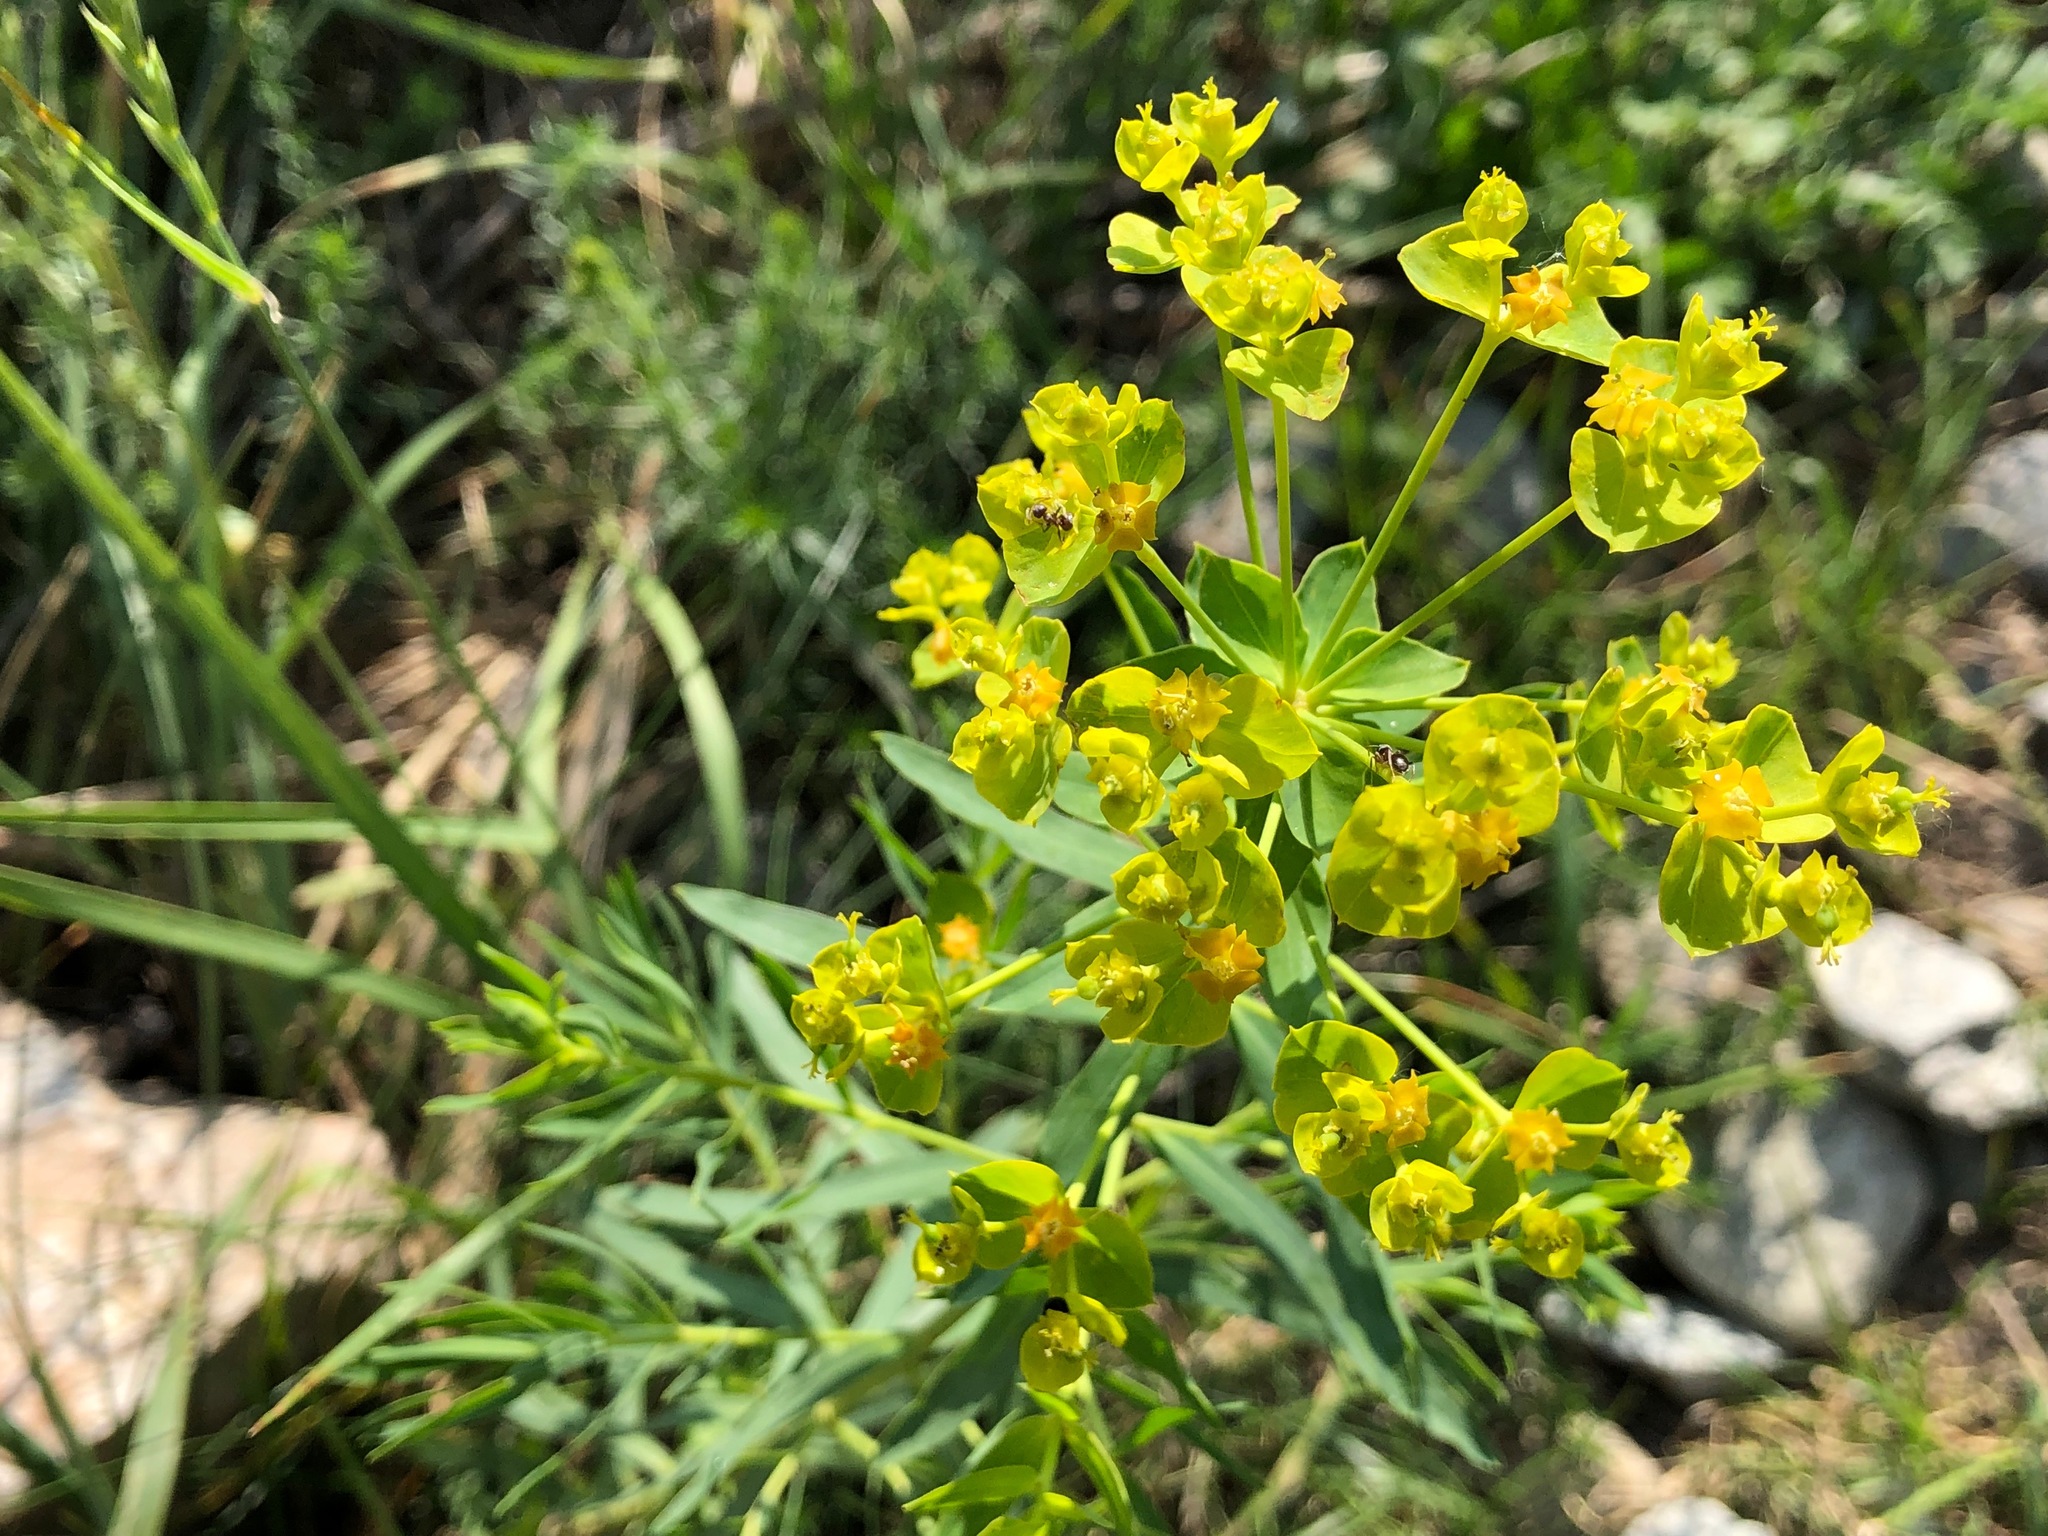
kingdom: Plantae
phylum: Tracheophyta
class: Magnoliopsida
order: Malpighiales
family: Euphorbiaceae
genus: Euphorbia
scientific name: Euphorbia seguieriana
